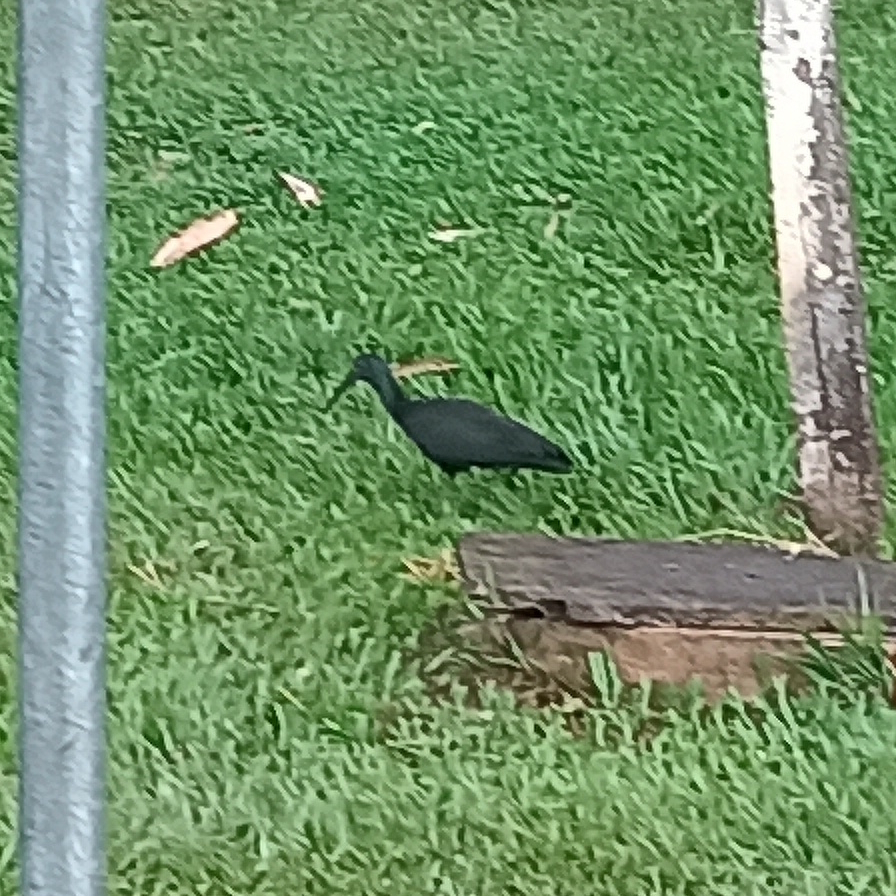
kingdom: Animalia
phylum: Chordata
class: Aves
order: Pelecaniformes
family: Threskiornithidae
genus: Mesembrinibis
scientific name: Mesembrinibis cayennensis
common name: Green ibis
